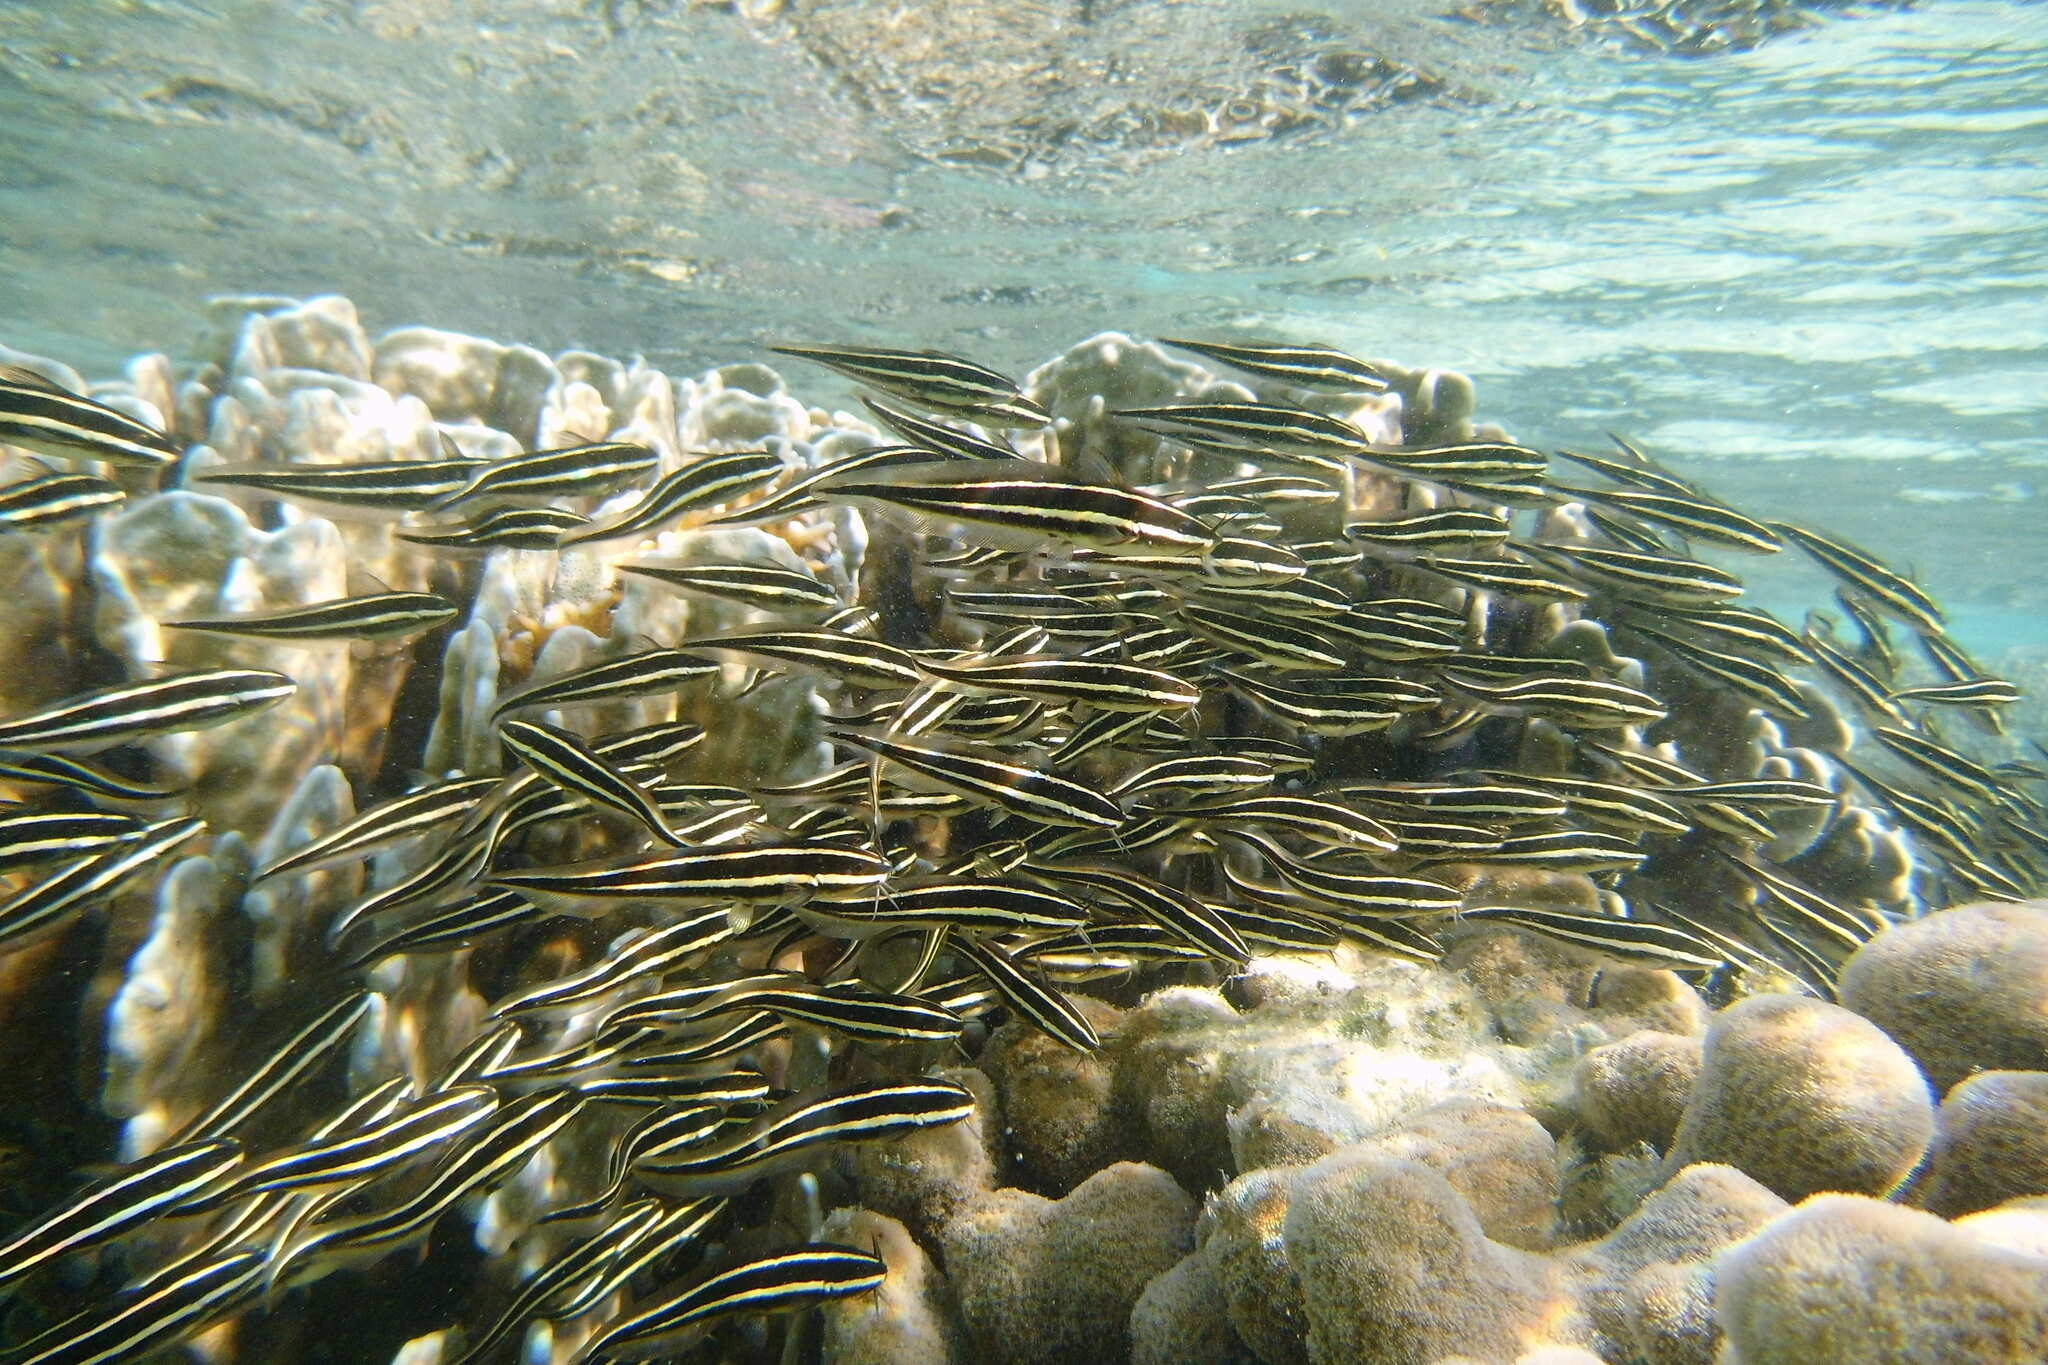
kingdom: Animalia
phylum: Chordata
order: Siluriformes
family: Plotosidae
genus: Plotosus
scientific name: Plotosus lineatus
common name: Striped eel catfish
